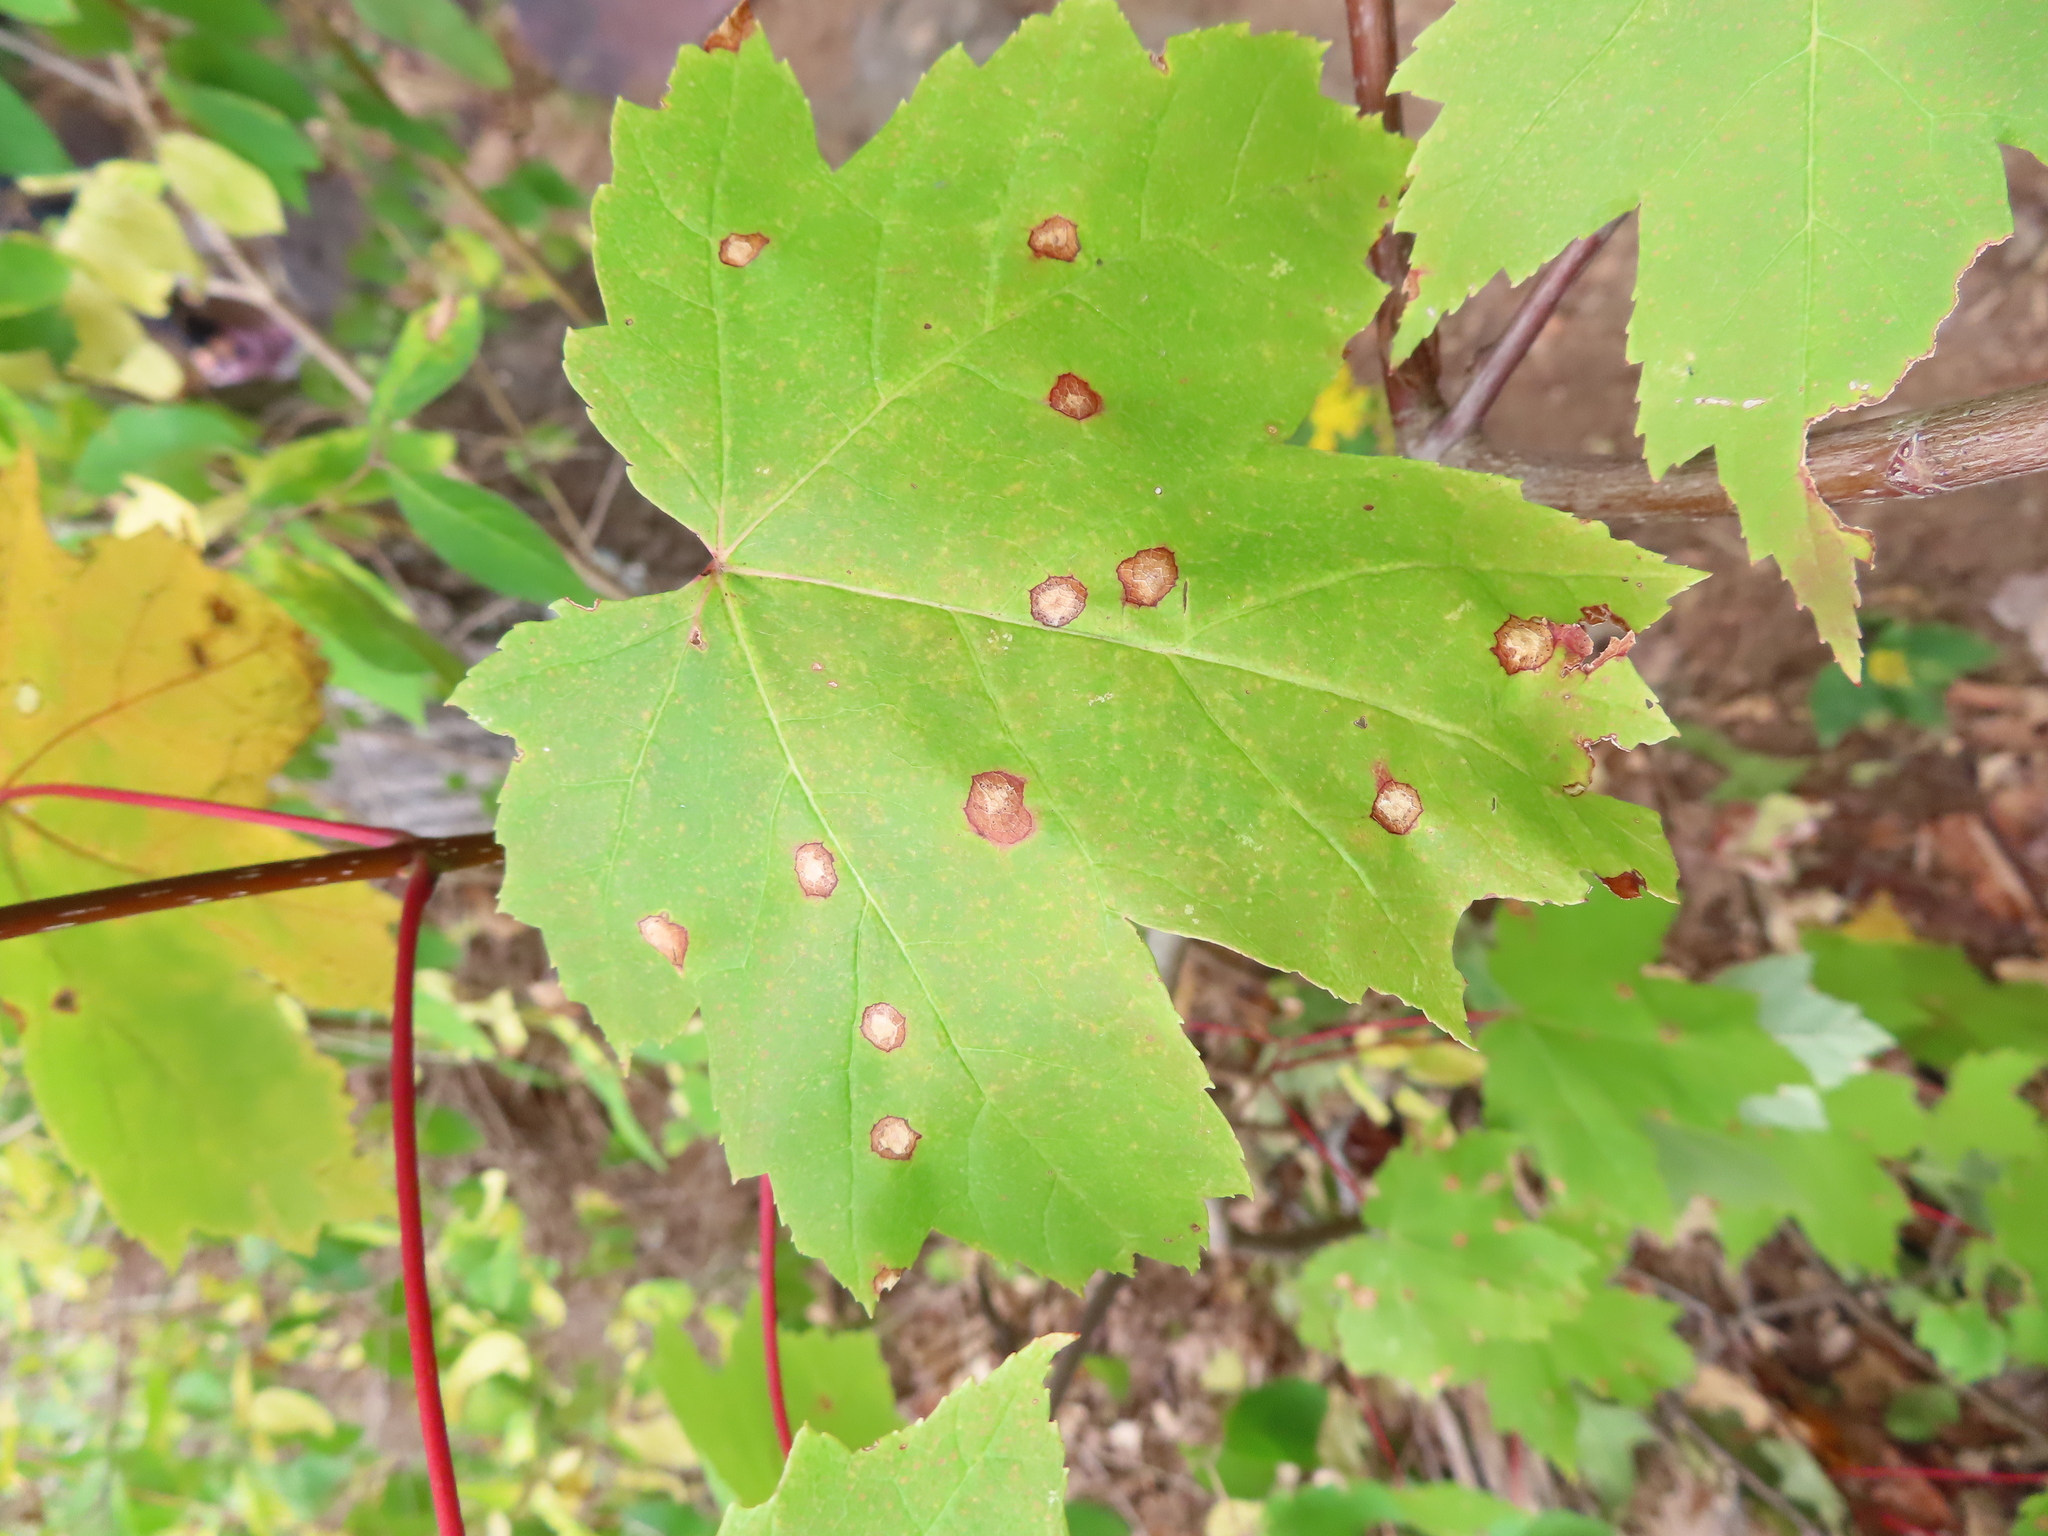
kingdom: Animalia
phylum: Arthropoda
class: Insecta
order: Diptera
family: Cecidomyiidae
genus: Acericecis
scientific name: Acericecis ocellaris
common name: Ocellate gall midge
